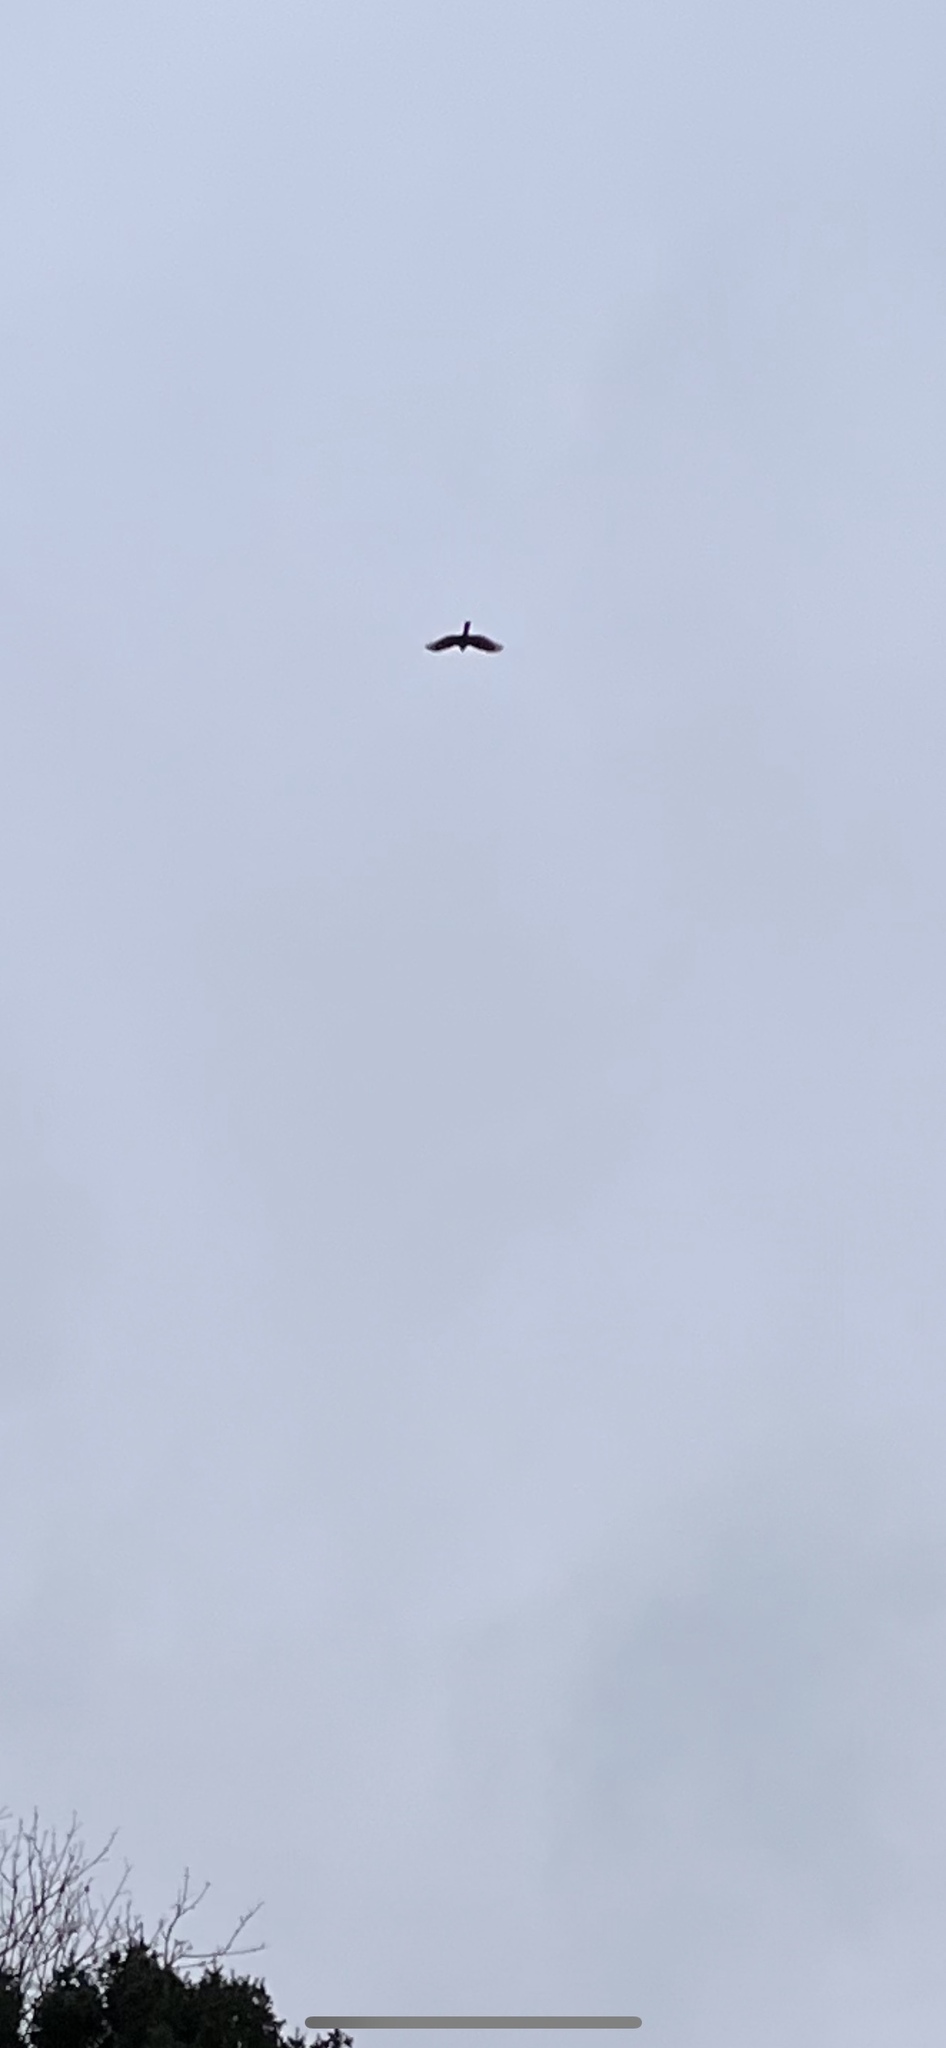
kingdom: Animalia
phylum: Chordata
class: Aves
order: Accipitriformes
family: Accipitridae
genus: Accipiter
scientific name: Accipiter nisus
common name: Eurasian sparrowhawk
